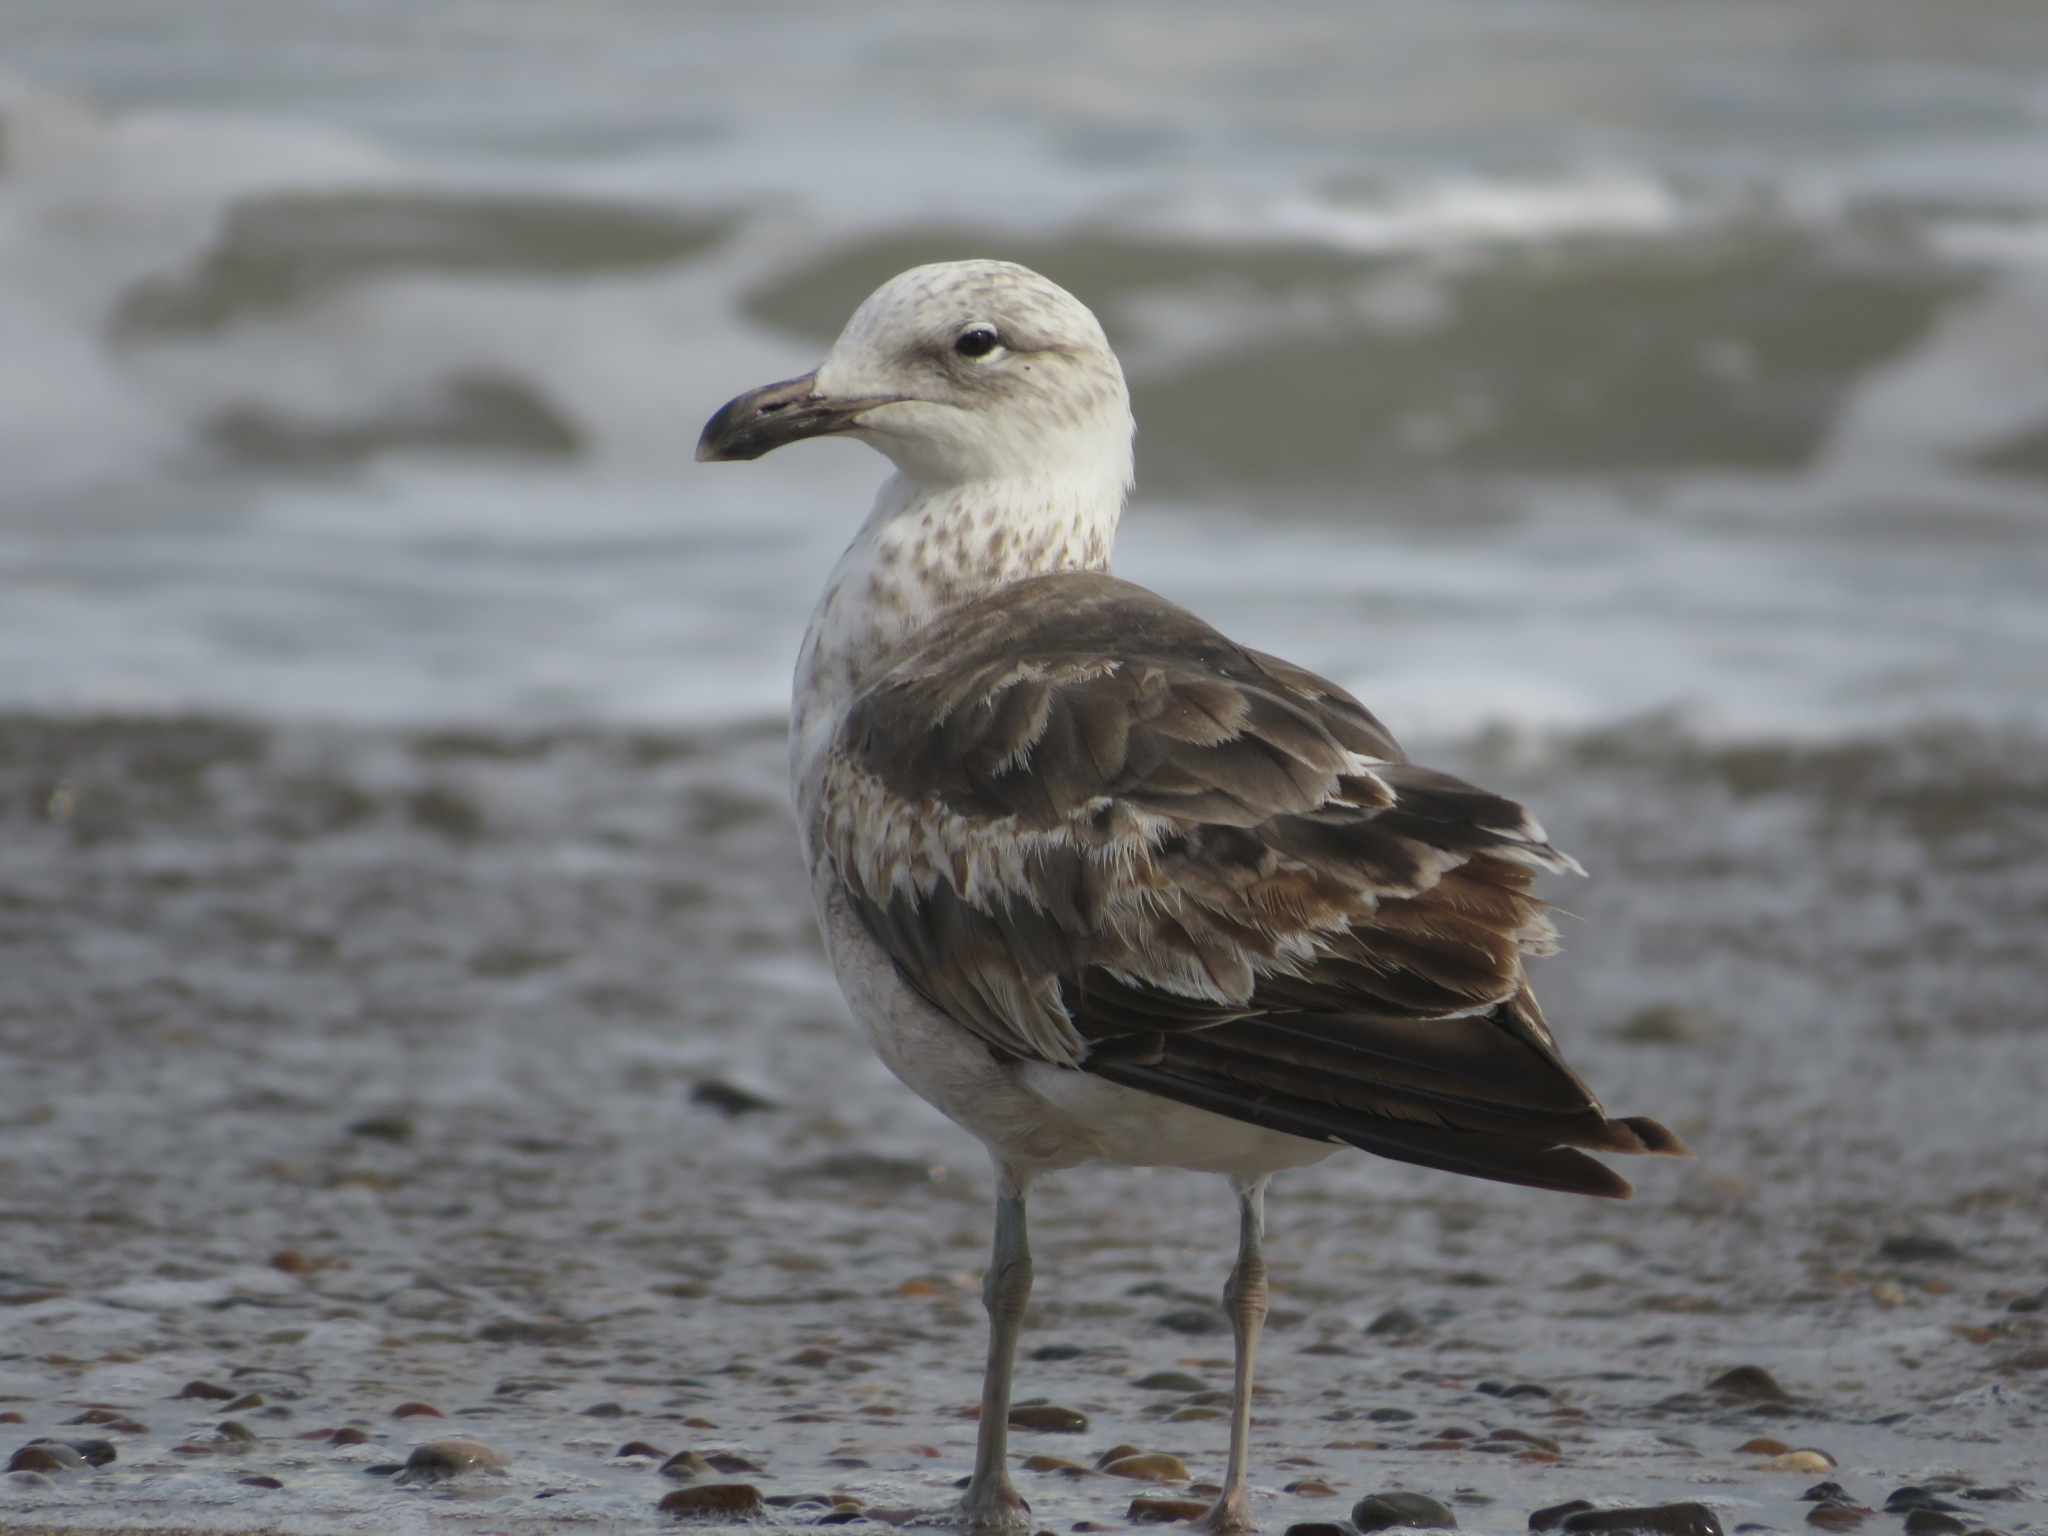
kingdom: Animalia
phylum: Chordata
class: Aves
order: Charadriiformes
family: Laridae
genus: Larus
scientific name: Larus dominicanus
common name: Kelp gull
